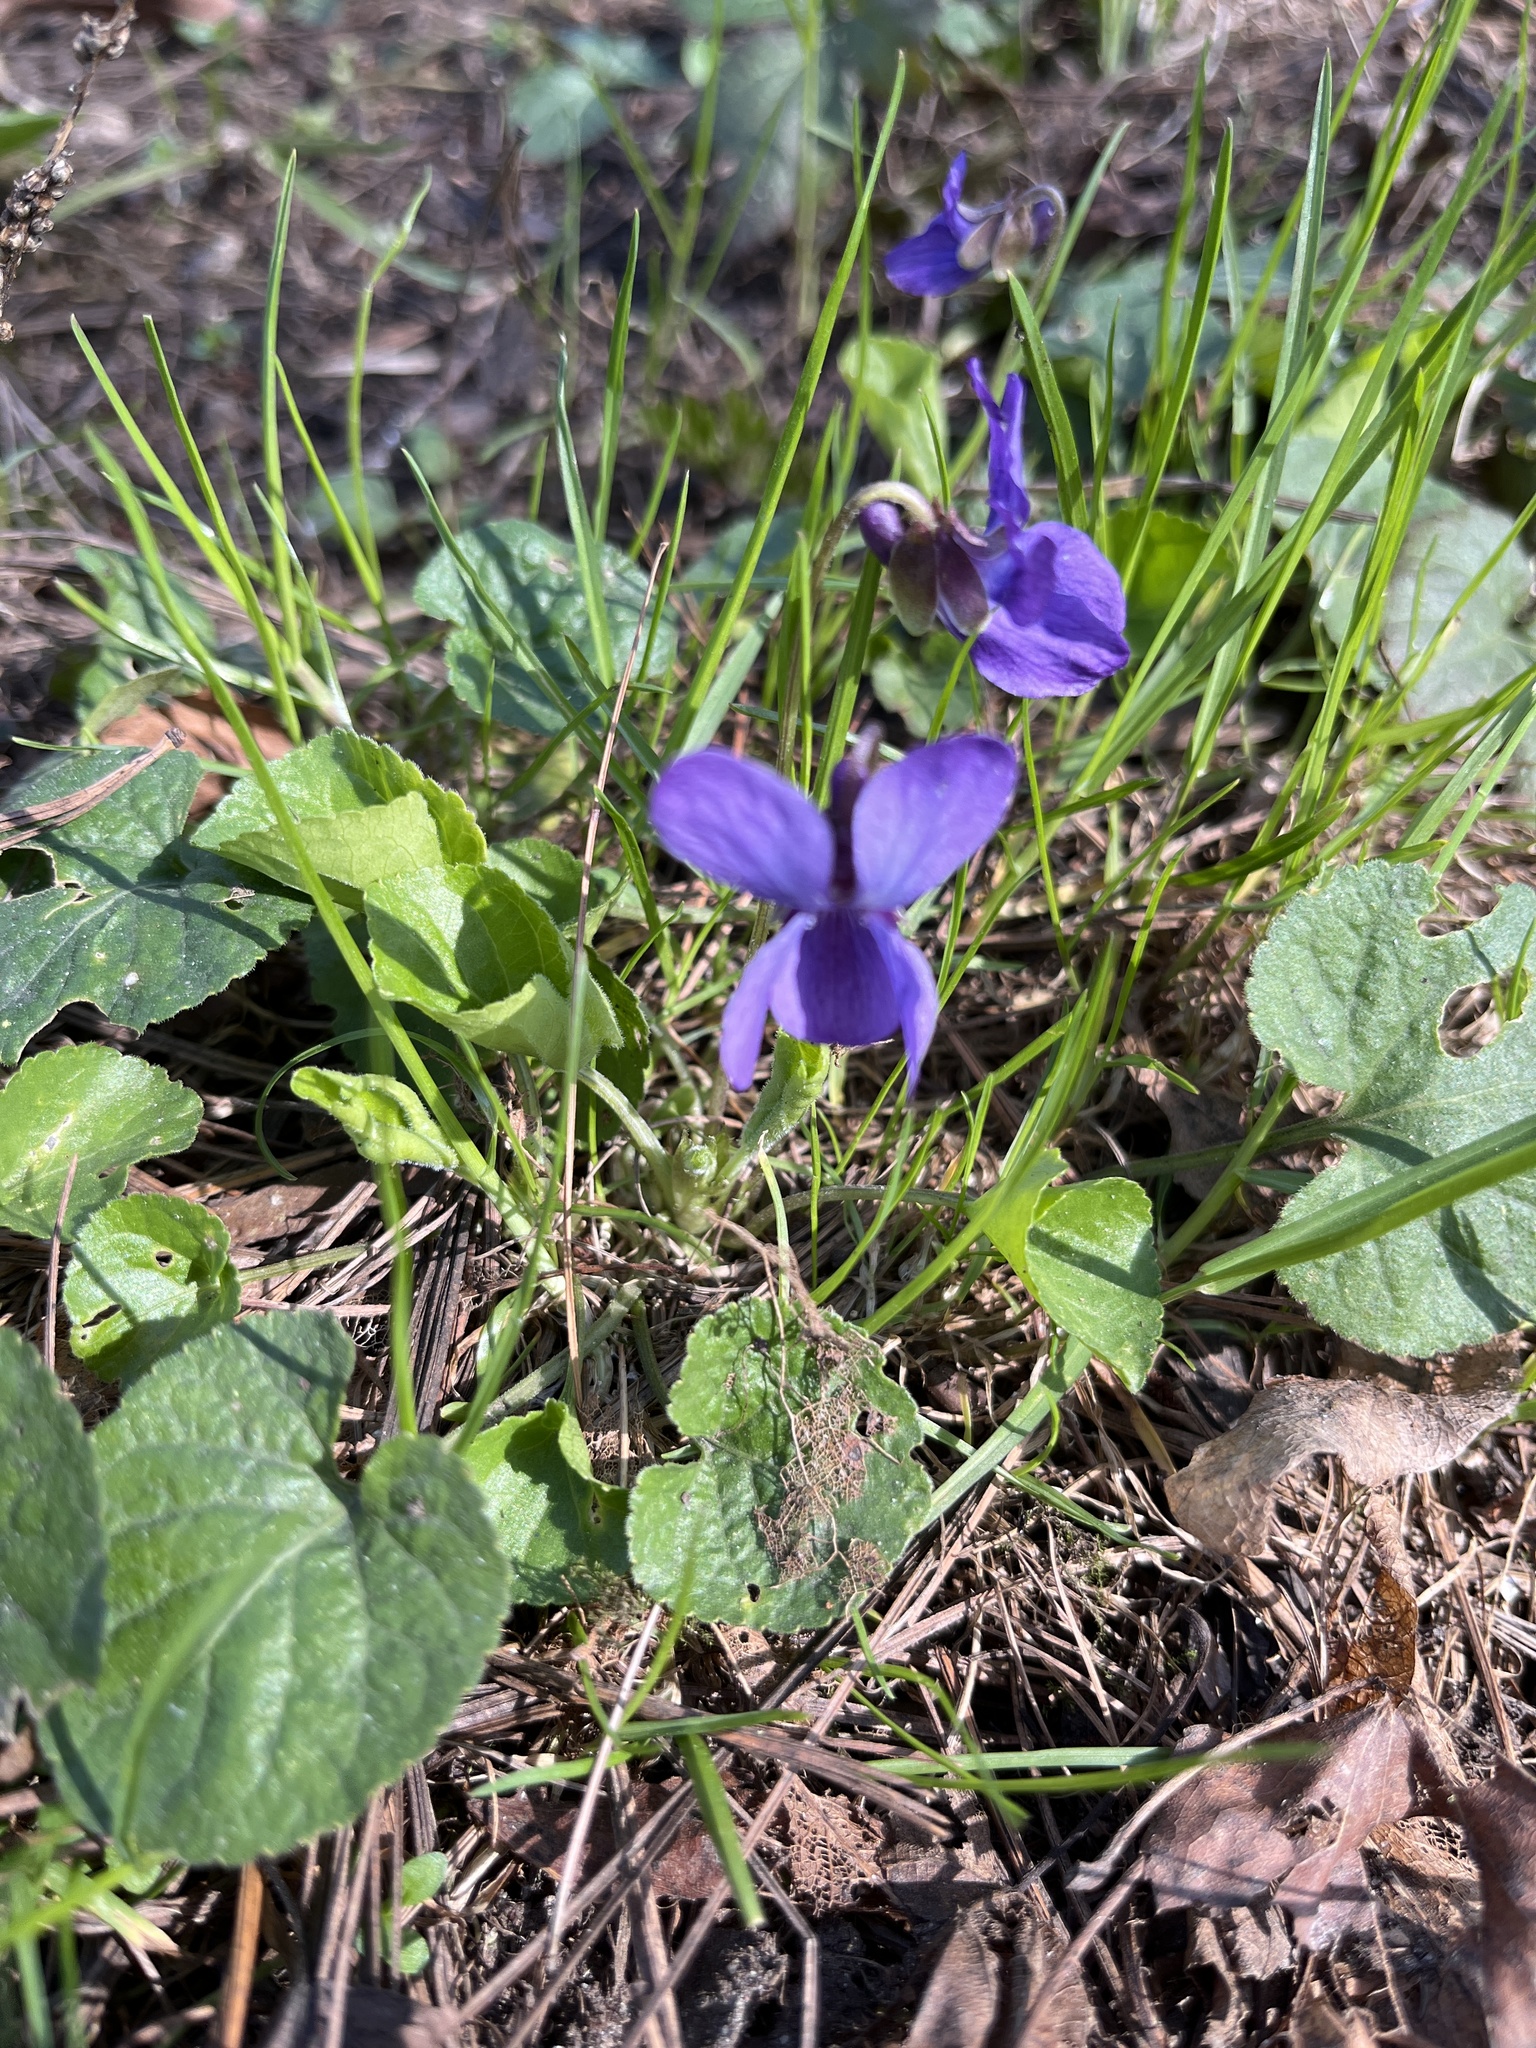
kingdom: Plantae
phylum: Tracheophyta
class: Magnoliopsida
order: Malpighiales
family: Violaceae
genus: Viola
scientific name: Viola odorata
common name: Sweet violet
